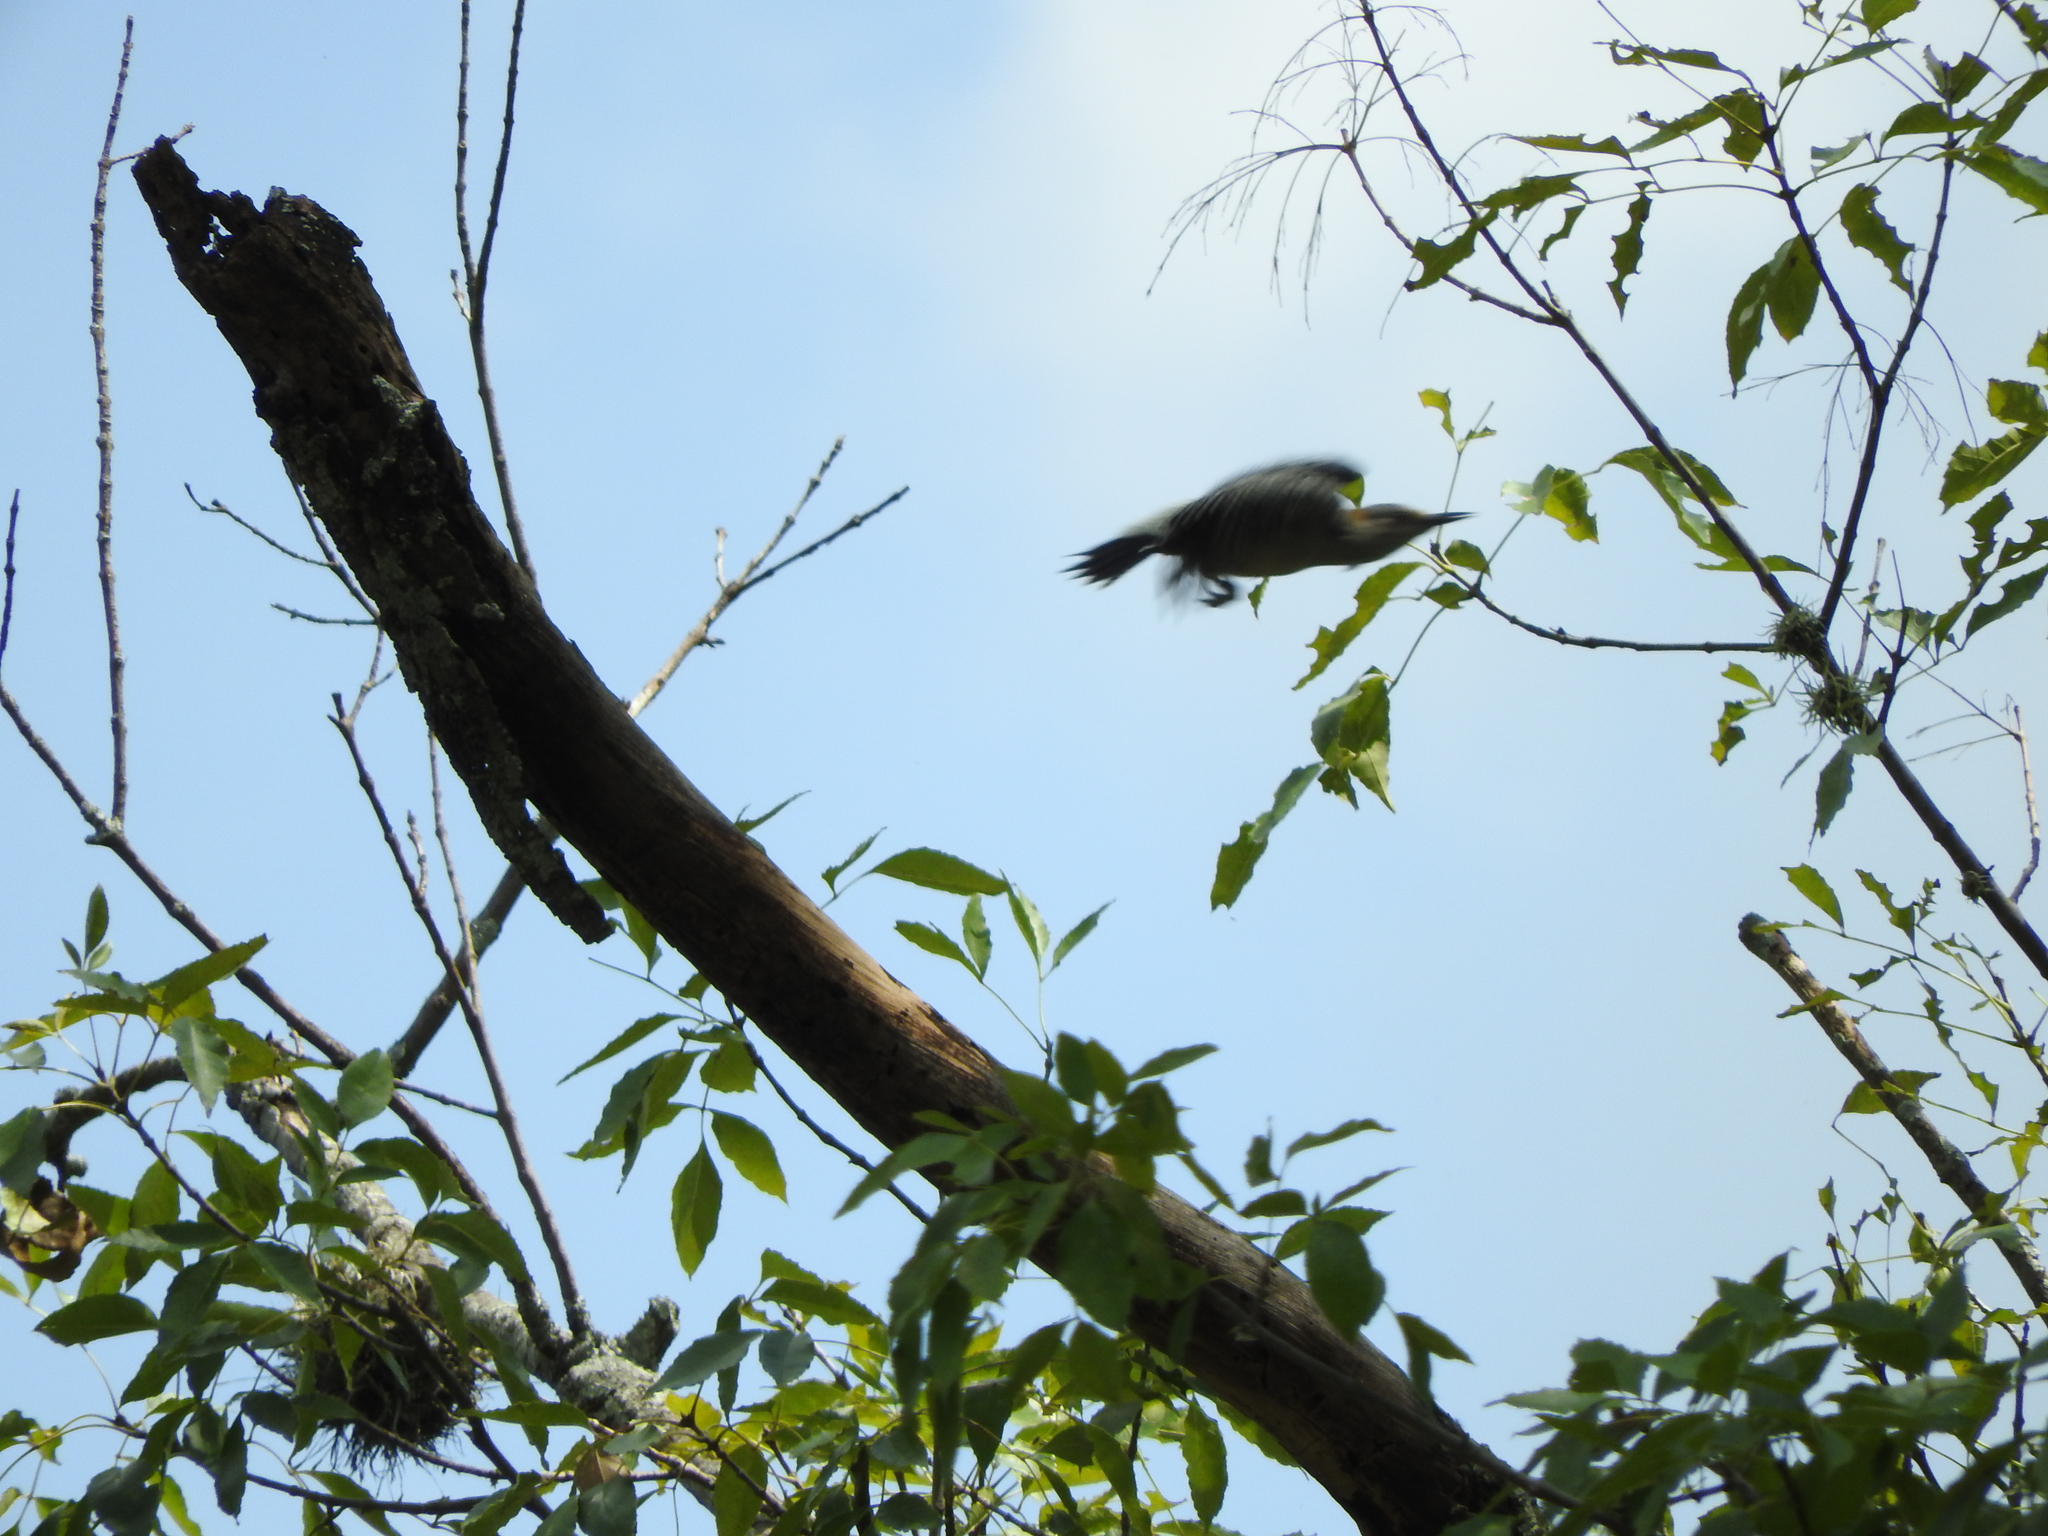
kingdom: Animalia
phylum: Chordata
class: Aves
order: Piciformes
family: Picidae
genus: Melanerpes
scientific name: Melanerpes aurifrons
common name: Golden-fronted woodpecker
